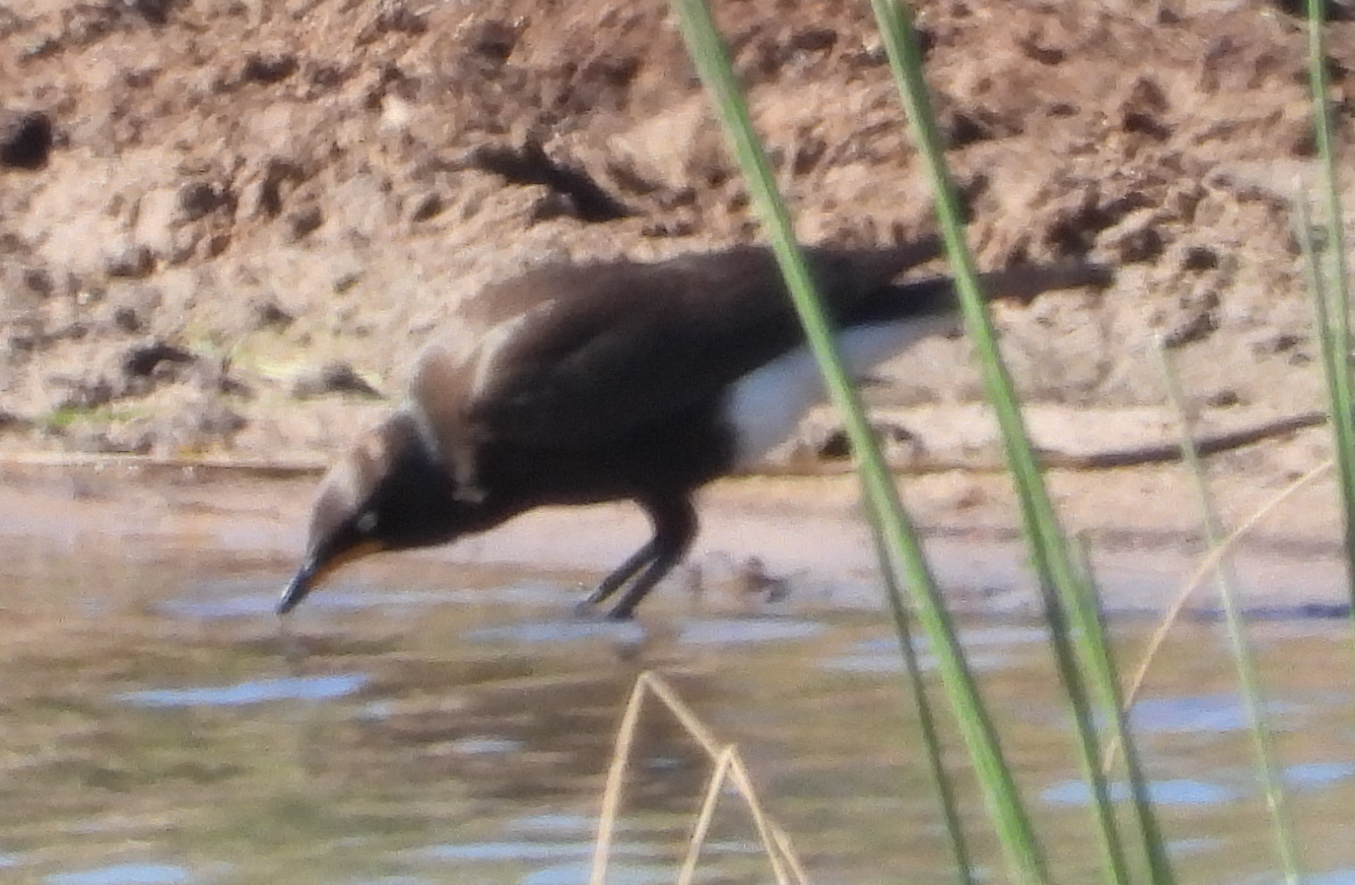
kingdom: Animalia
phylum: Chordata
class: Aves
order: Passeriformes
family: Sturnidae
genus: Lamprotornis
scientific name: Lamprotornis bicolor
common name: Pied starling
